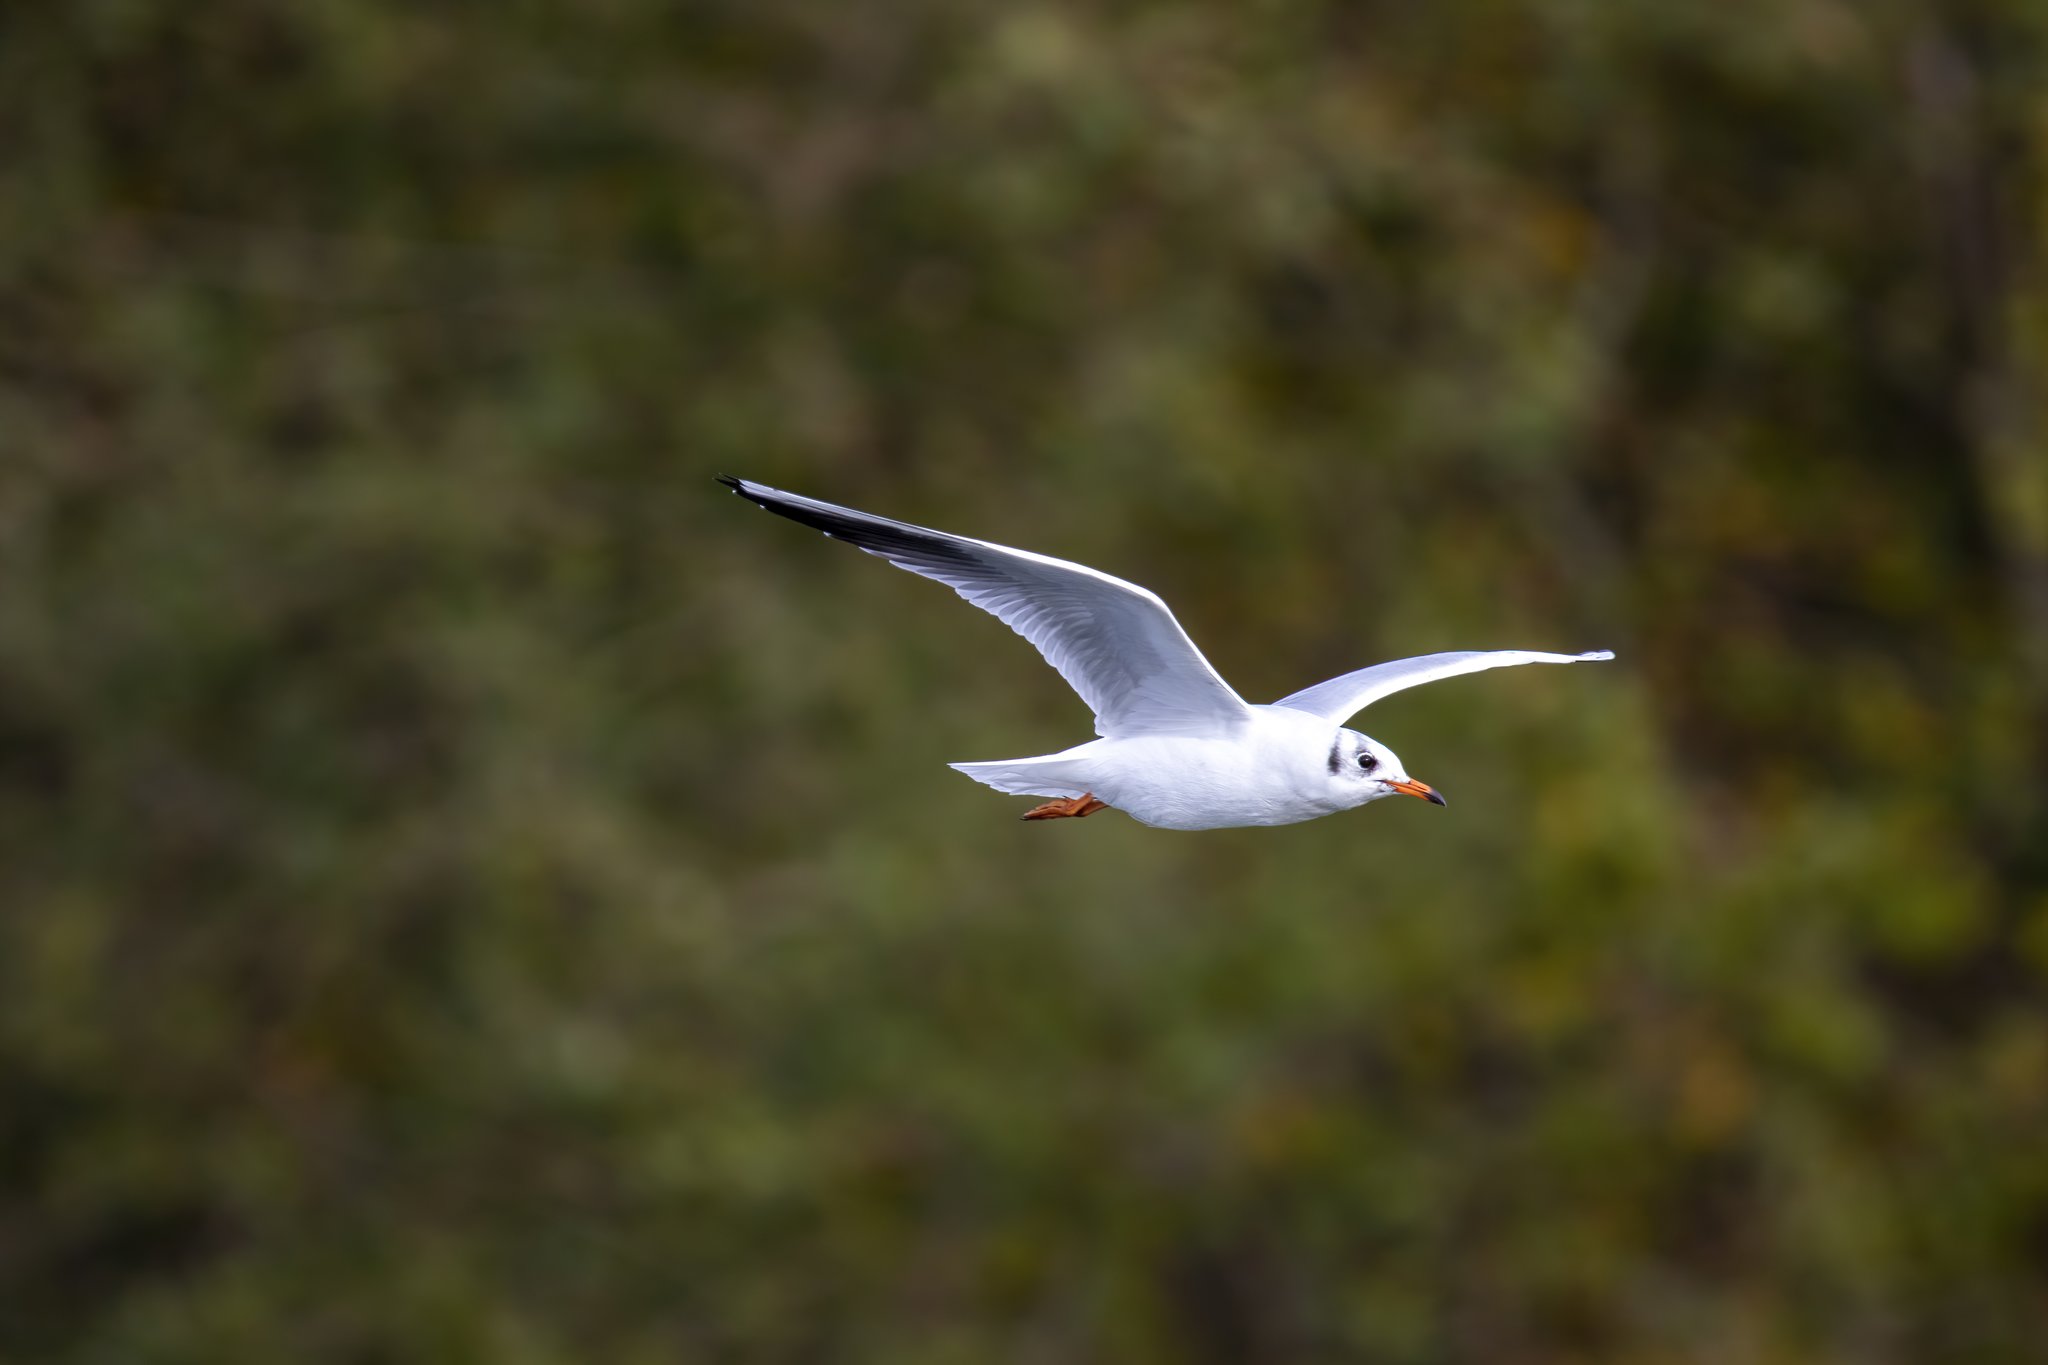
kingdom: Animalia
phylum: Chordata
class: Aves
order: Charadriiformes
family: Laridae
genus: Chroicocephalus
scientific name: Chroicocephalus ridibundus
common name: Black-headed gull
